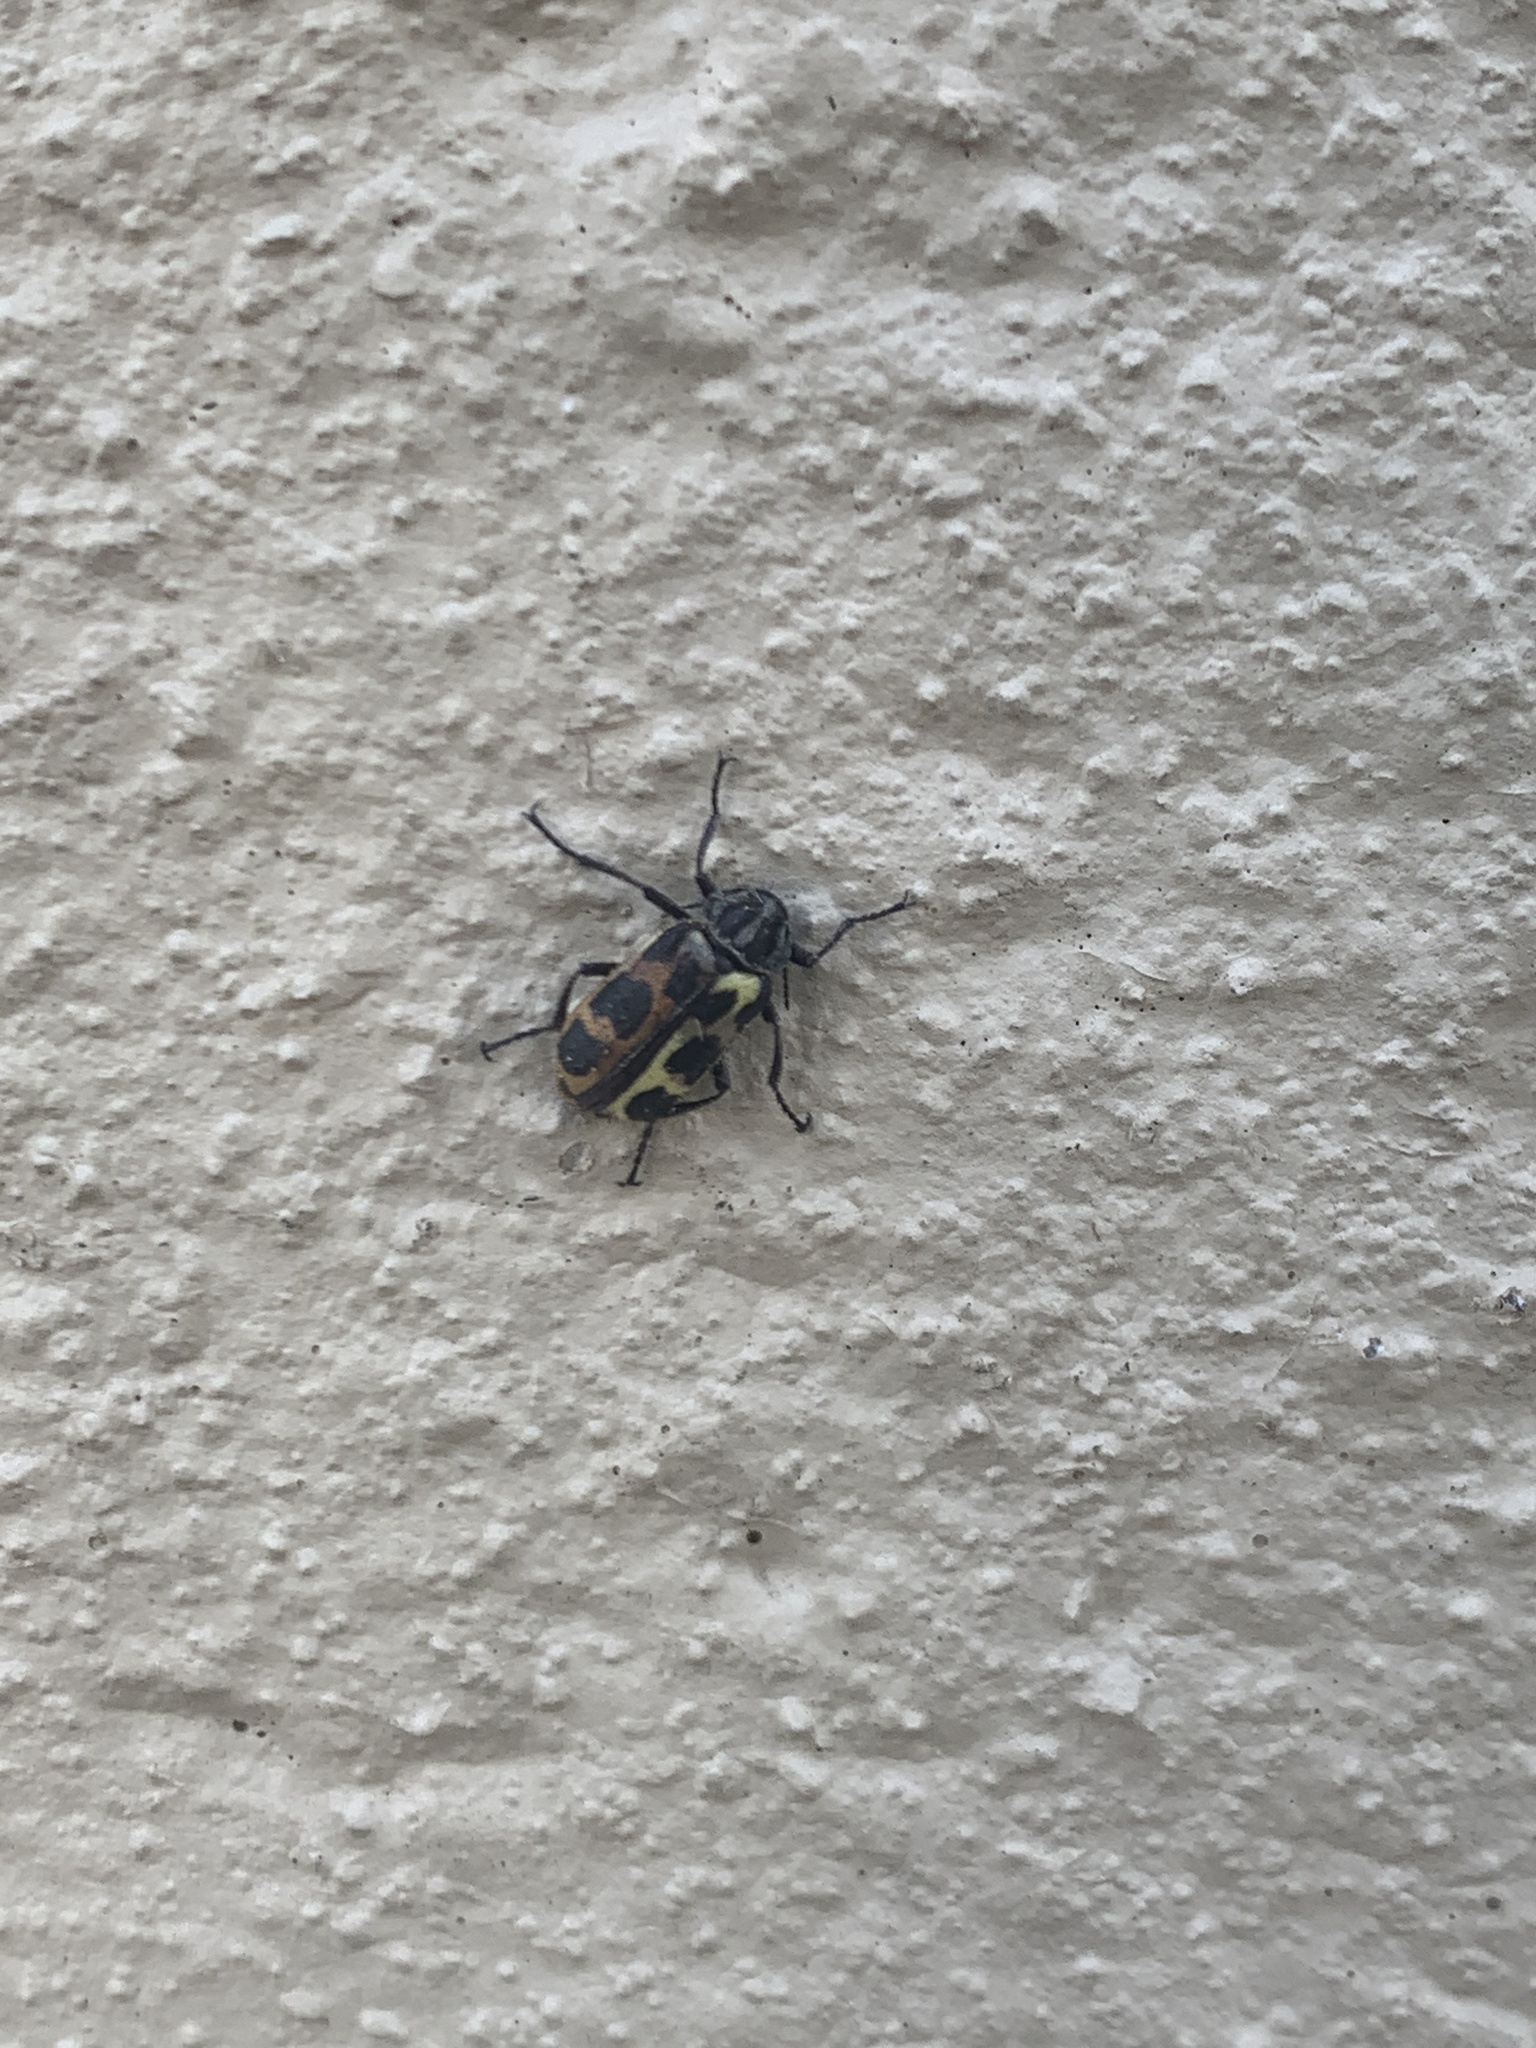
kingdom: Animalia
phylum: Arthropoda
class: Insecta
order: Coleoptera
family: Melyridae
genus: Astylus
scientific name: Astylus atromaculatus
